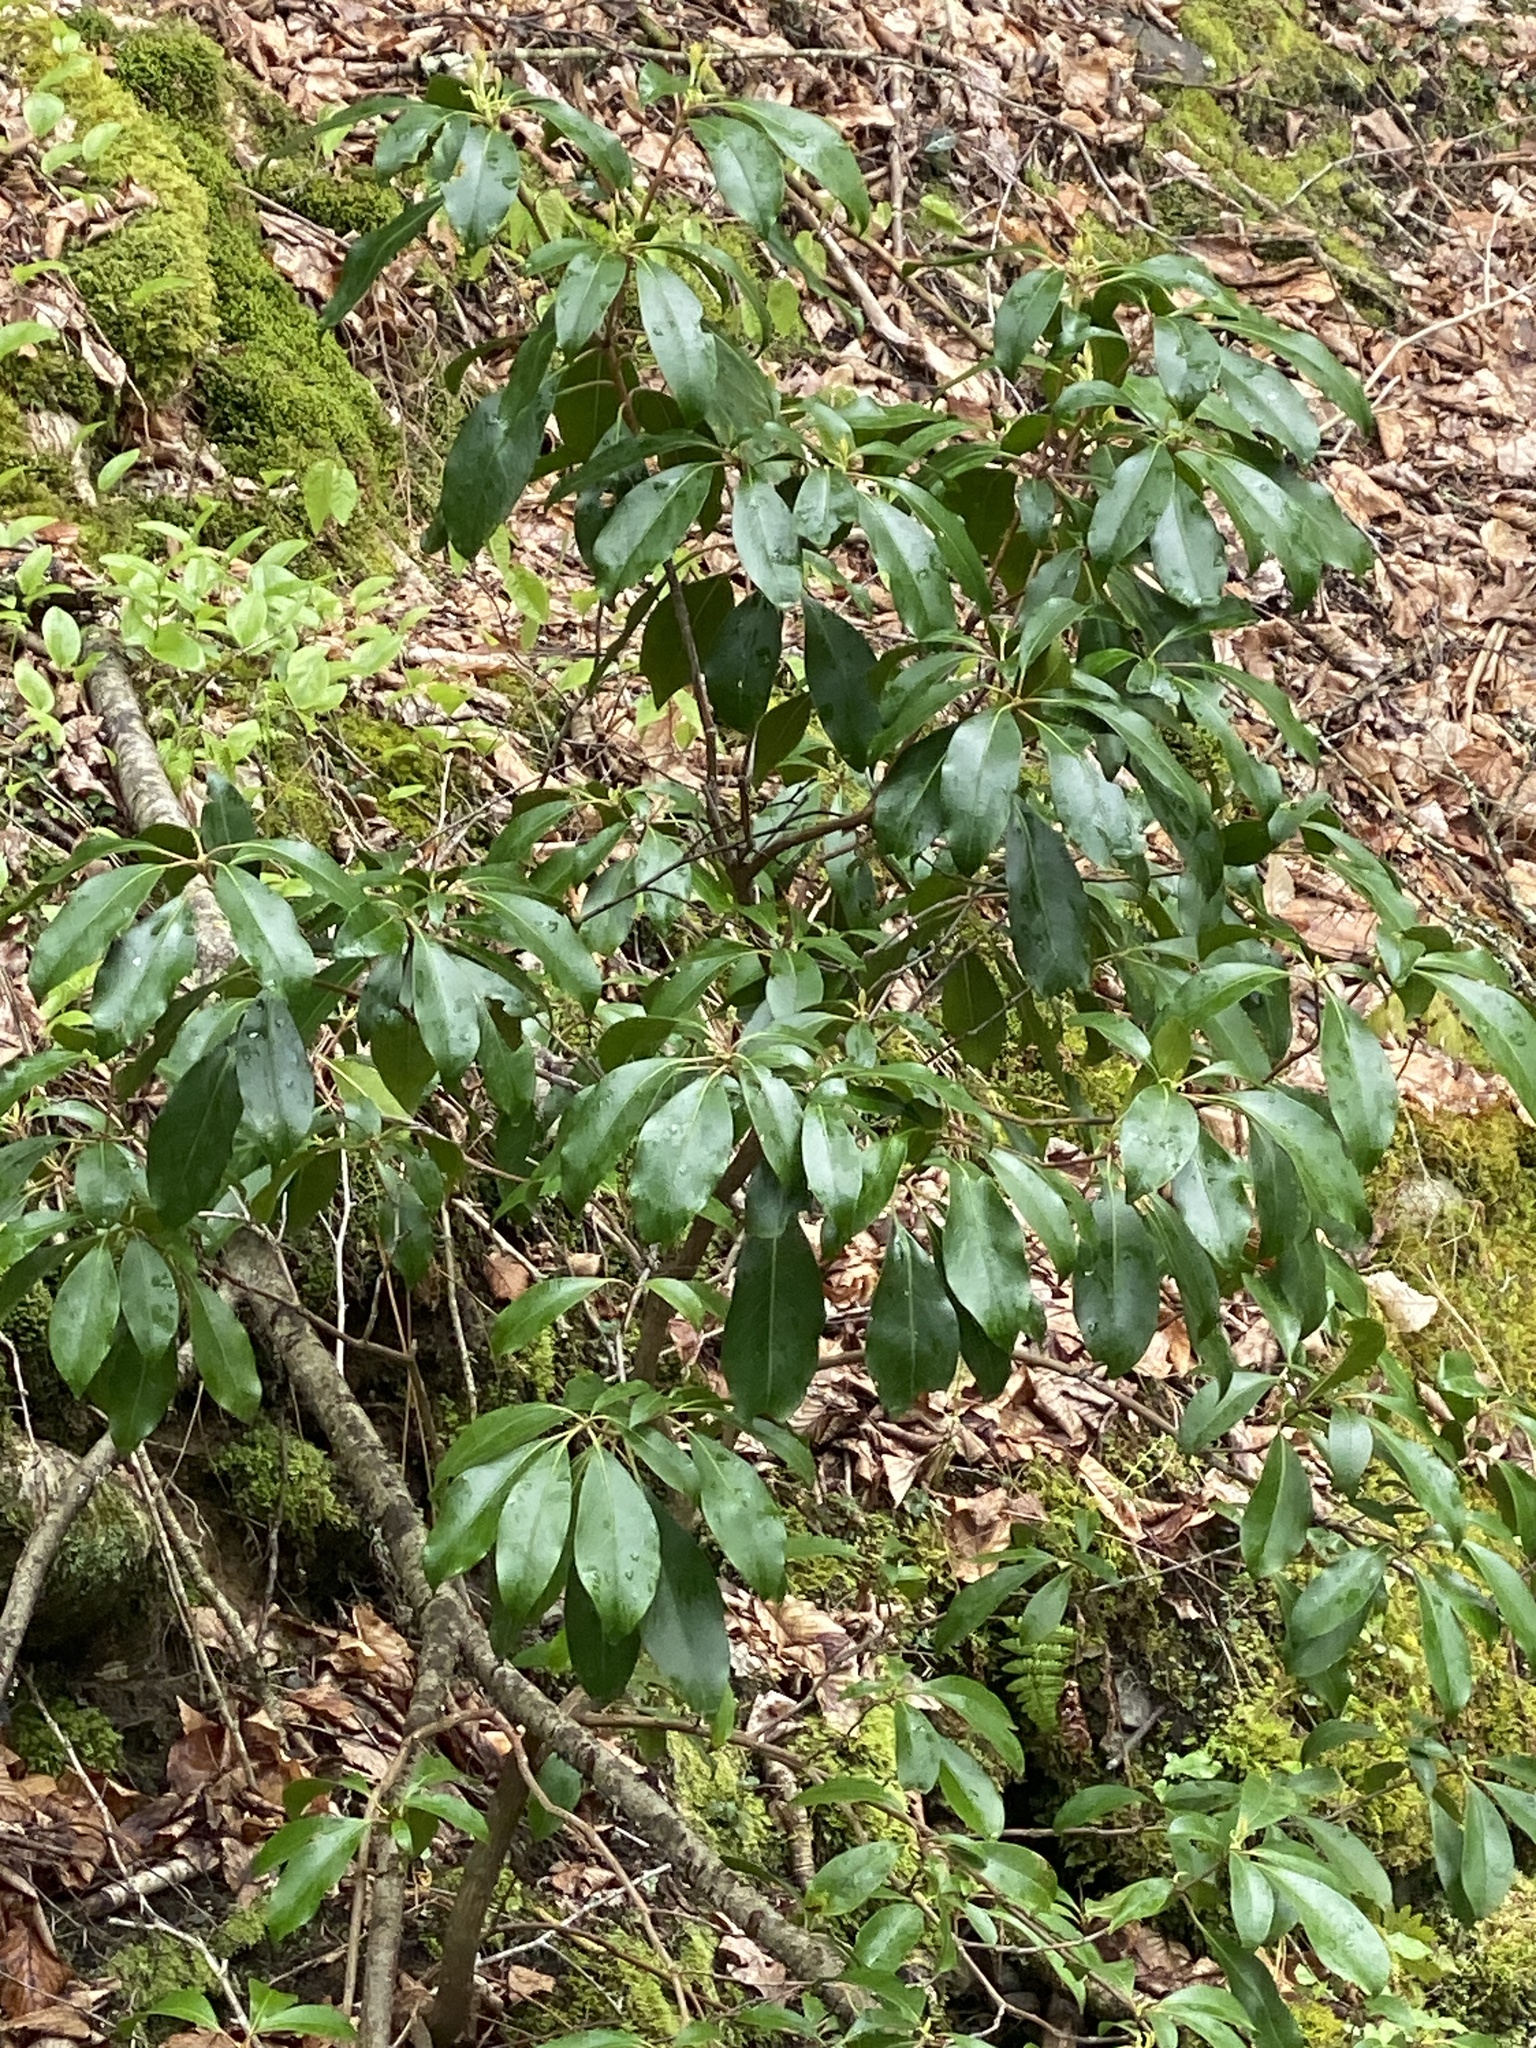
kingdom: Plantae
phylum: Tracheophyta
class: Magnoliopsida
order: Ericales
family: Ericaceae
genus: Kalmia
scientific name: Kalmia latifolia
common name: Mountain-laurel
